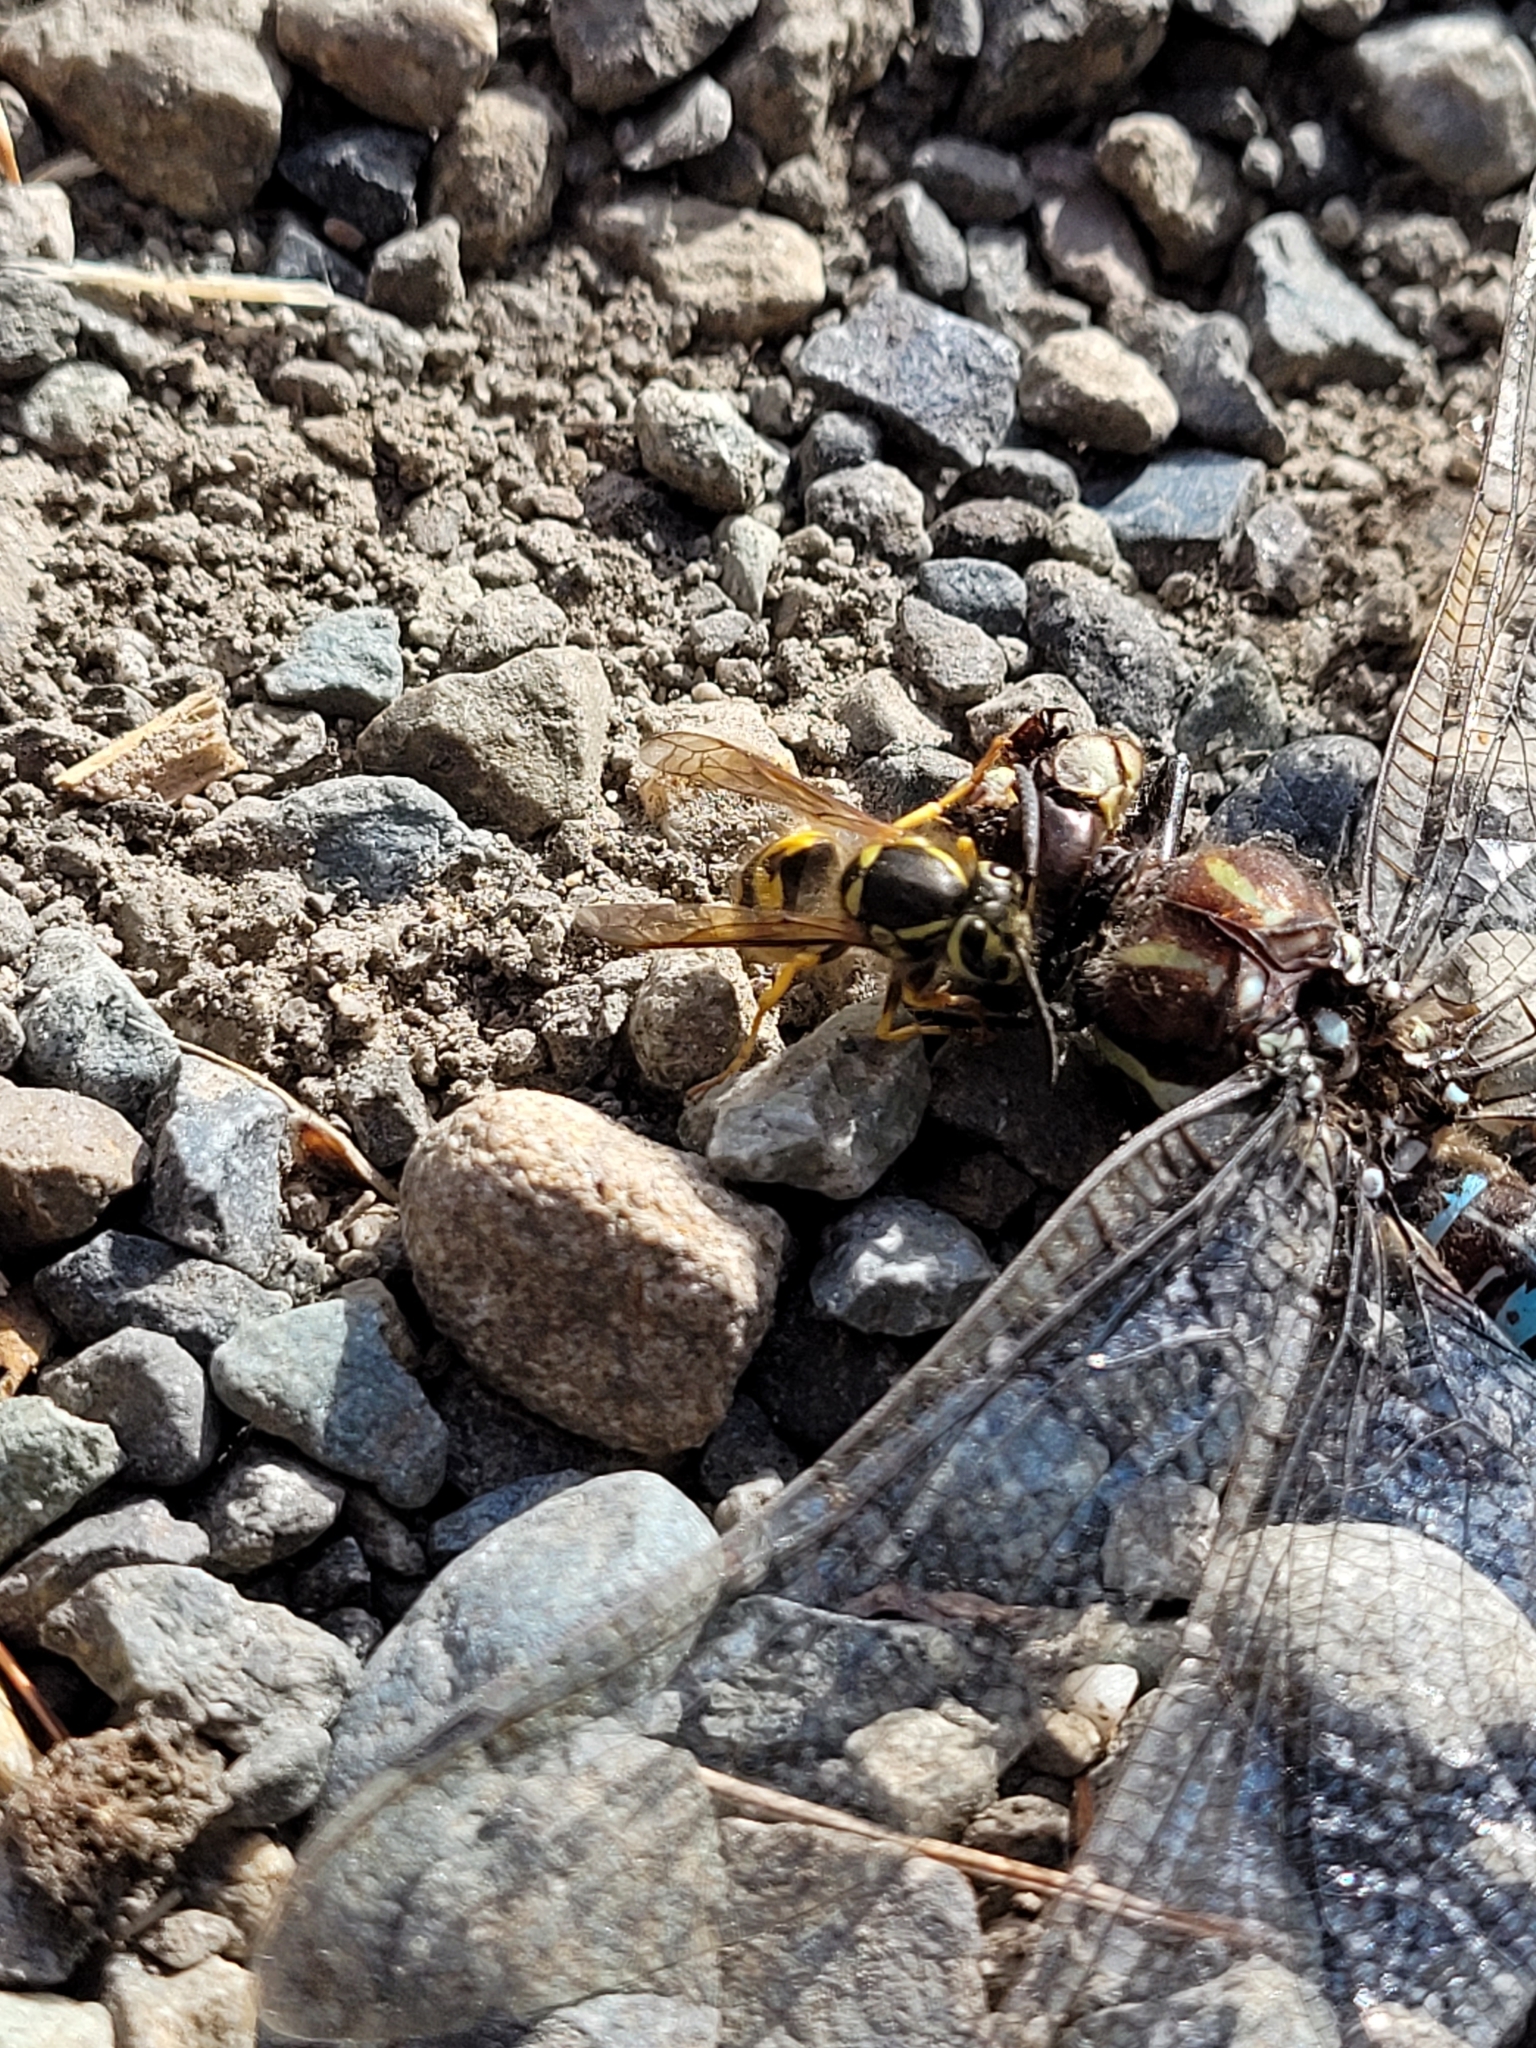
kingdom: Animalia
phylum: Arthropoda
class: Insecta
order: Hymenoptera
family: Vespidae
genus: Vespula
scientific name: Vespula pensylvanica
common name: Western yellowjacket
